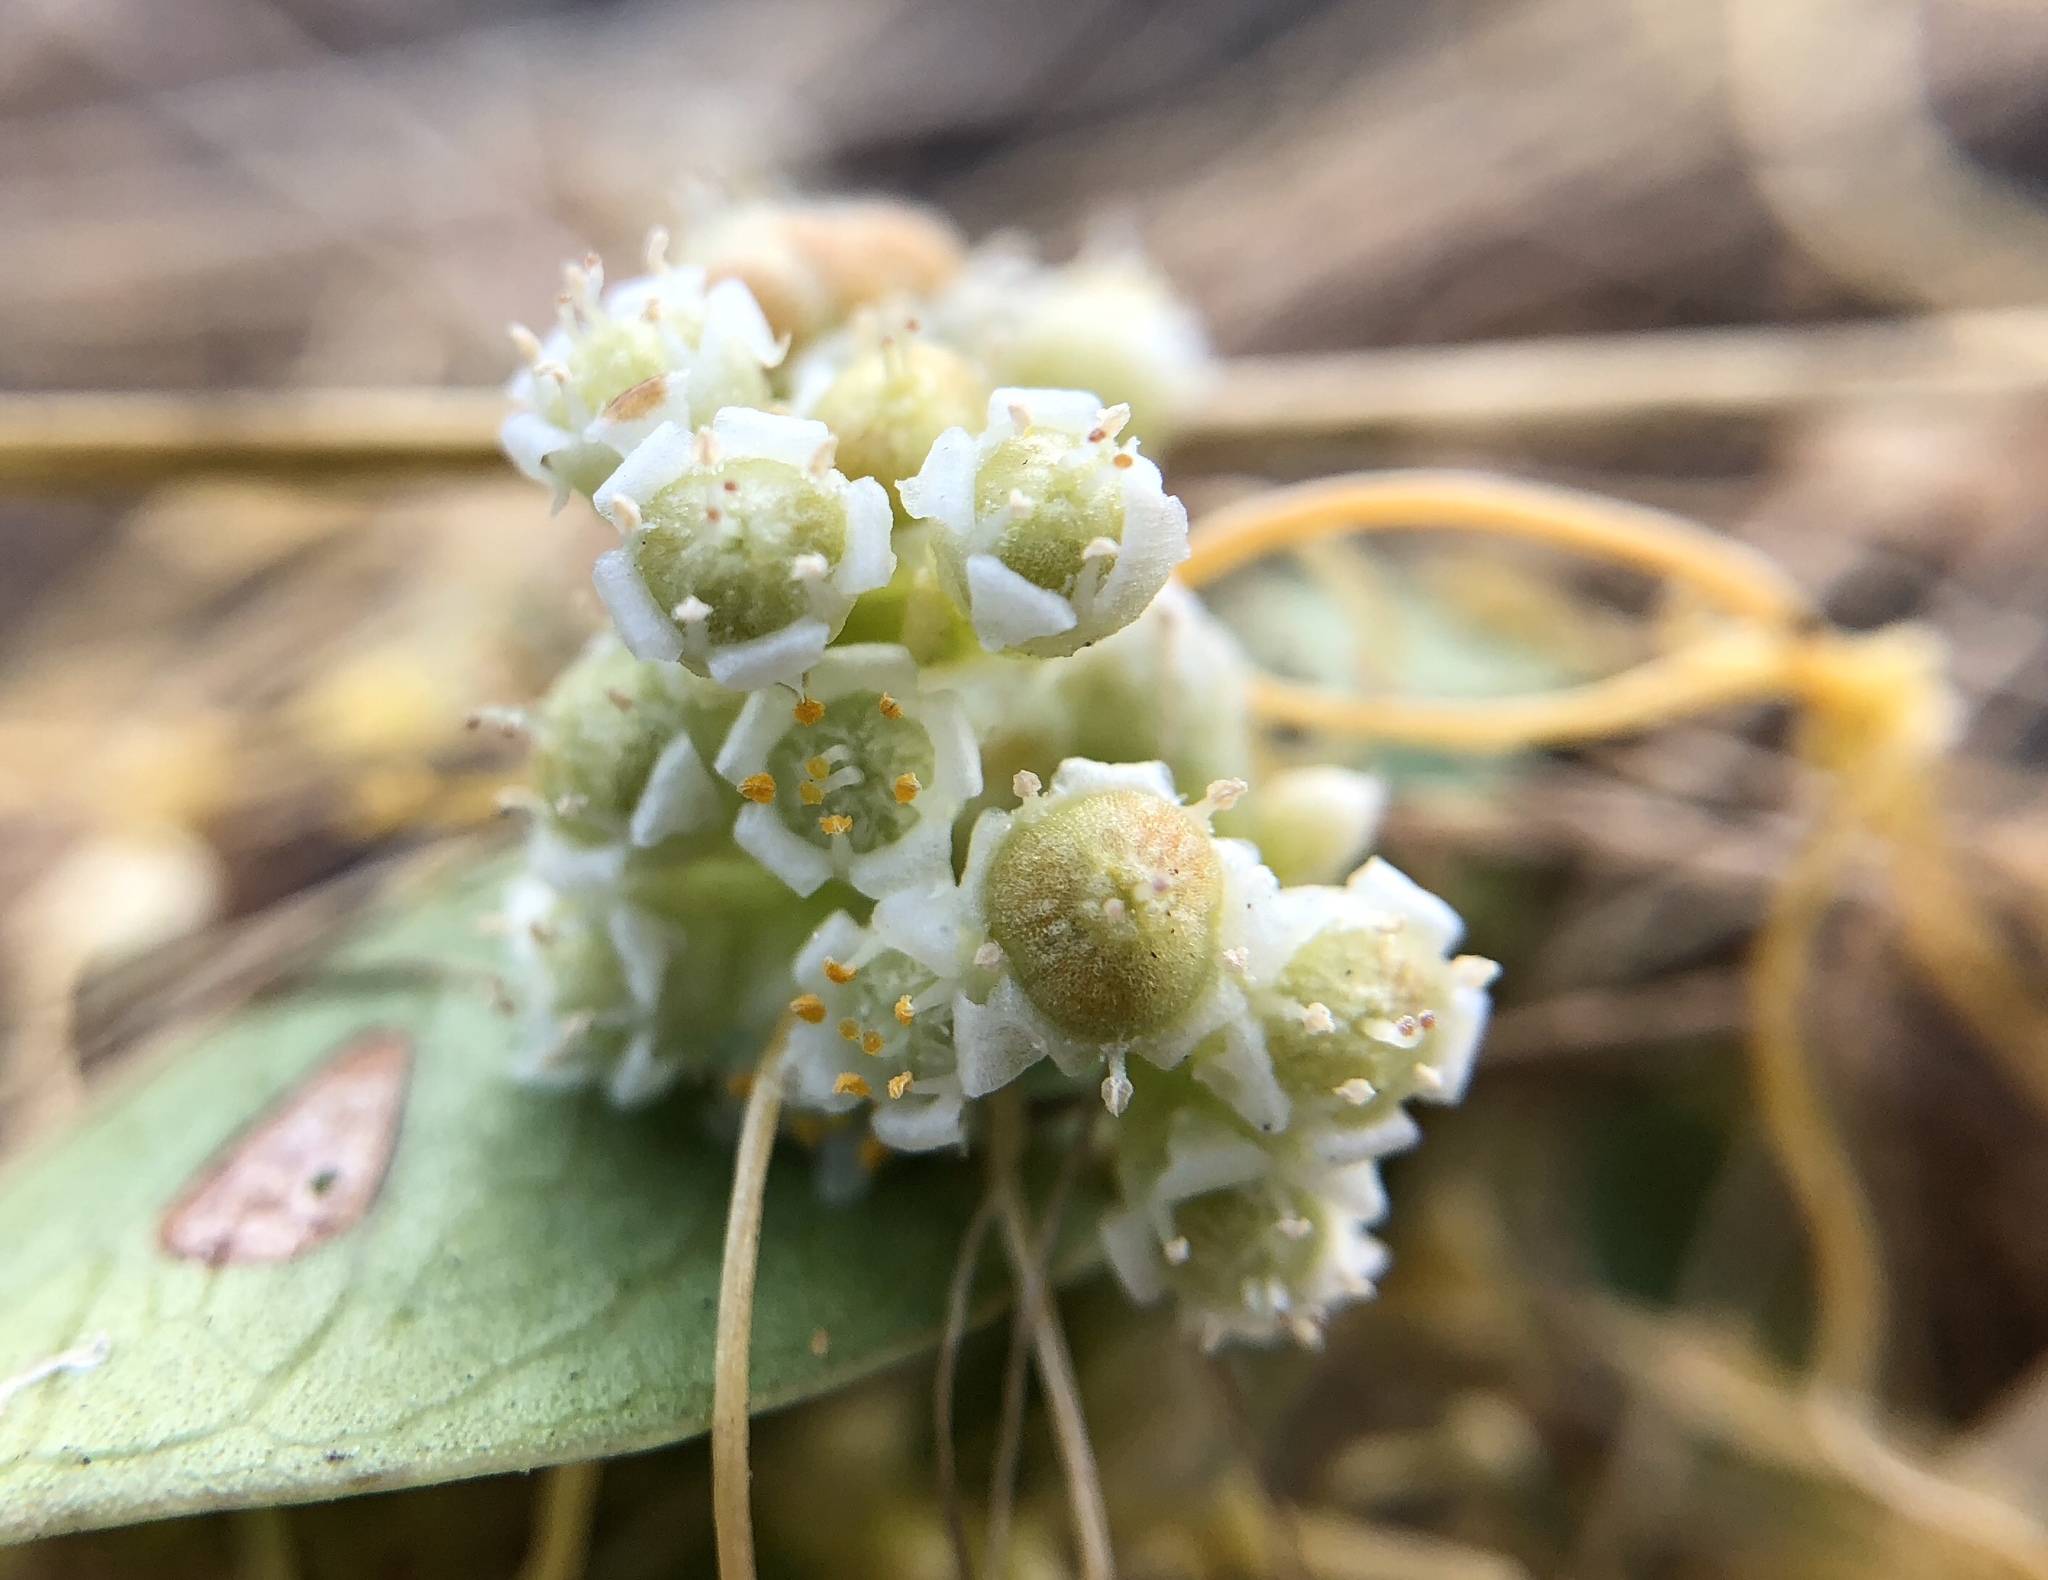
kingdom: Plantae
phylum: Tracheophyta
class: Magnoliopsida
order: Solanales
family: Convolvulaceae
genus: Cuscuta
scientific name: Cuscuta campestris
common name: Yellow dodder
